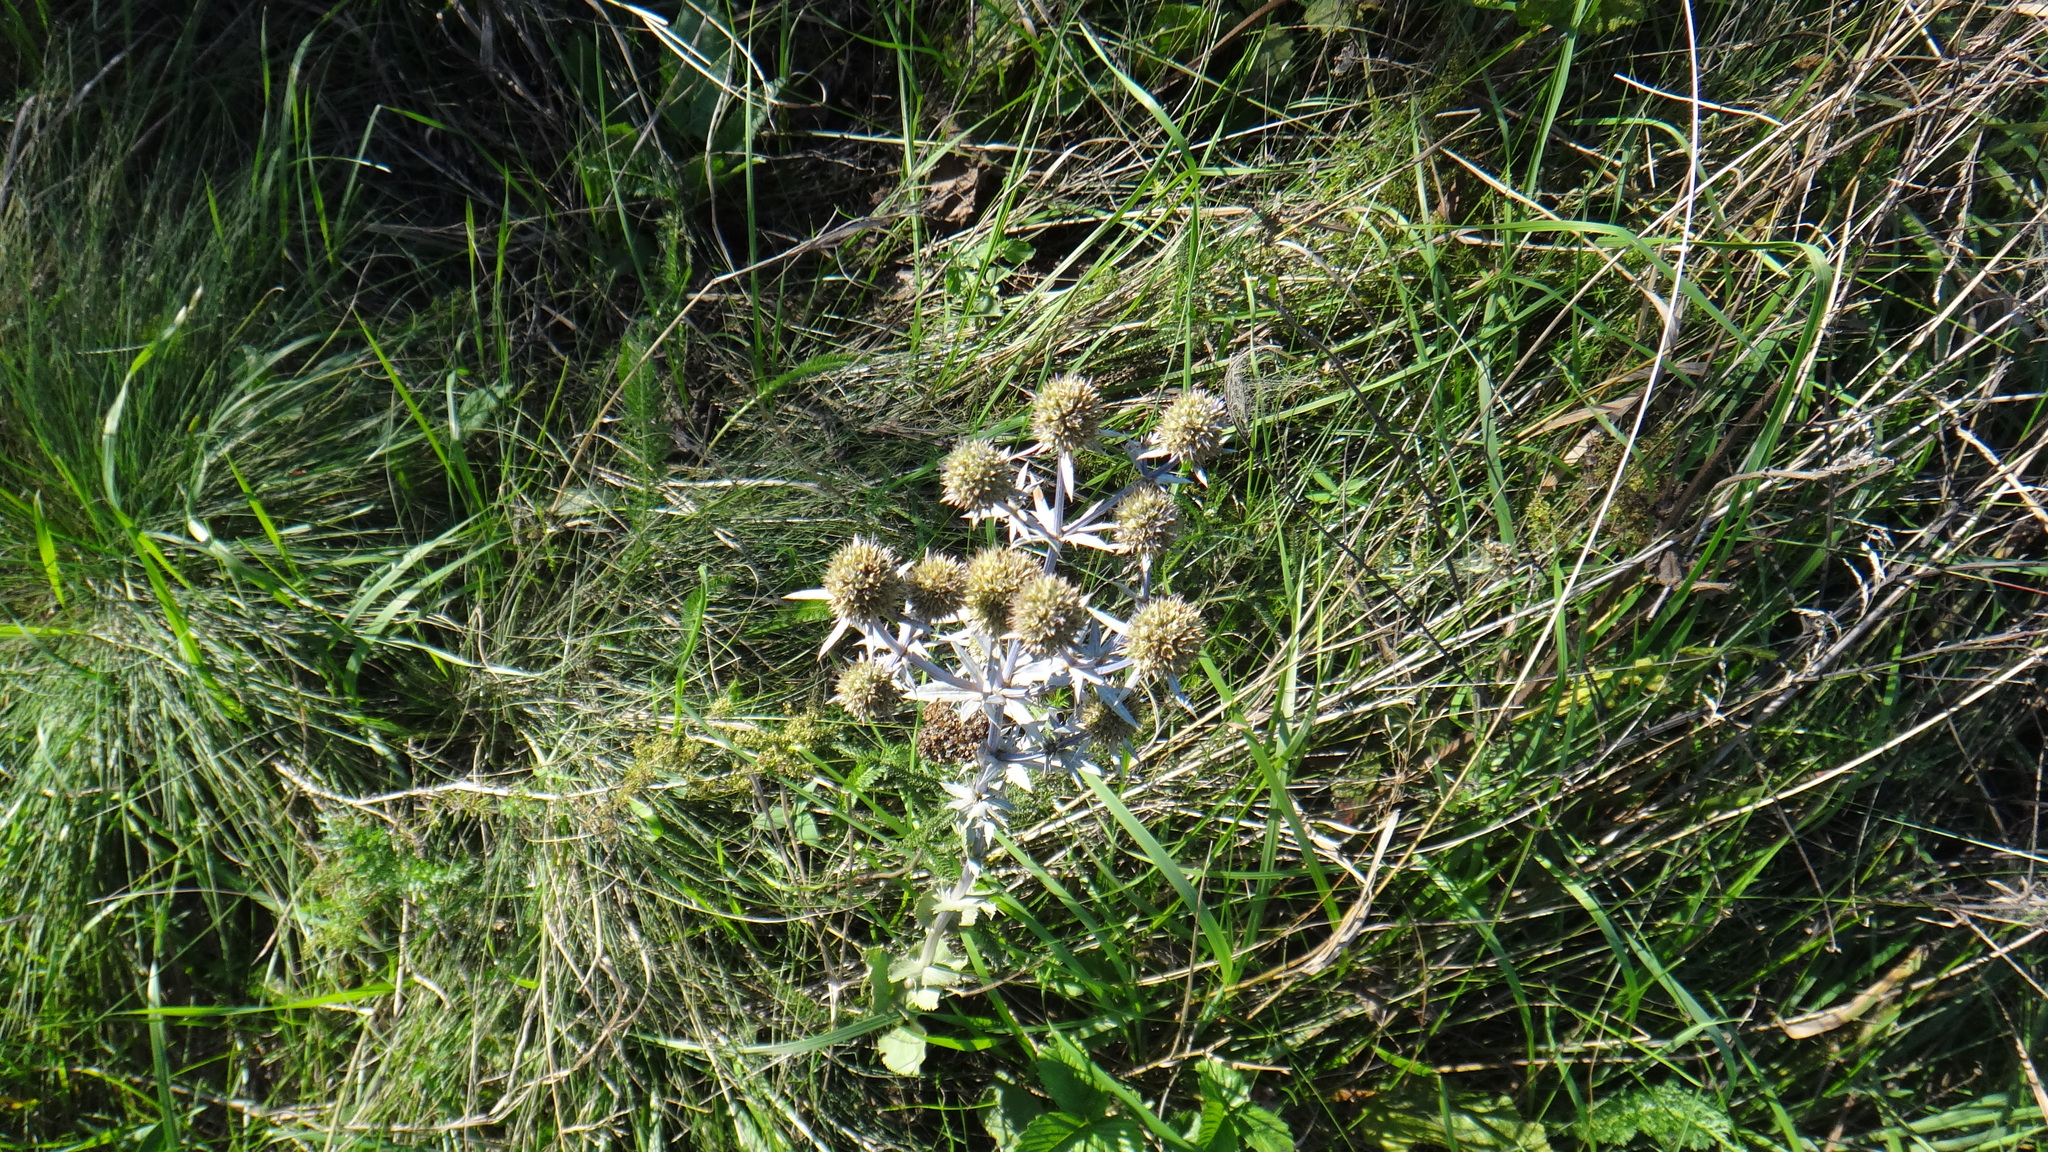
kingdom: Plantae
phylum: Tracheophyta
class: Magnoliopsida
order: Apiales
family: Apiaceae
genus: Eryngium
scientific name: Eryngium planum
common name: Blue eryngo
